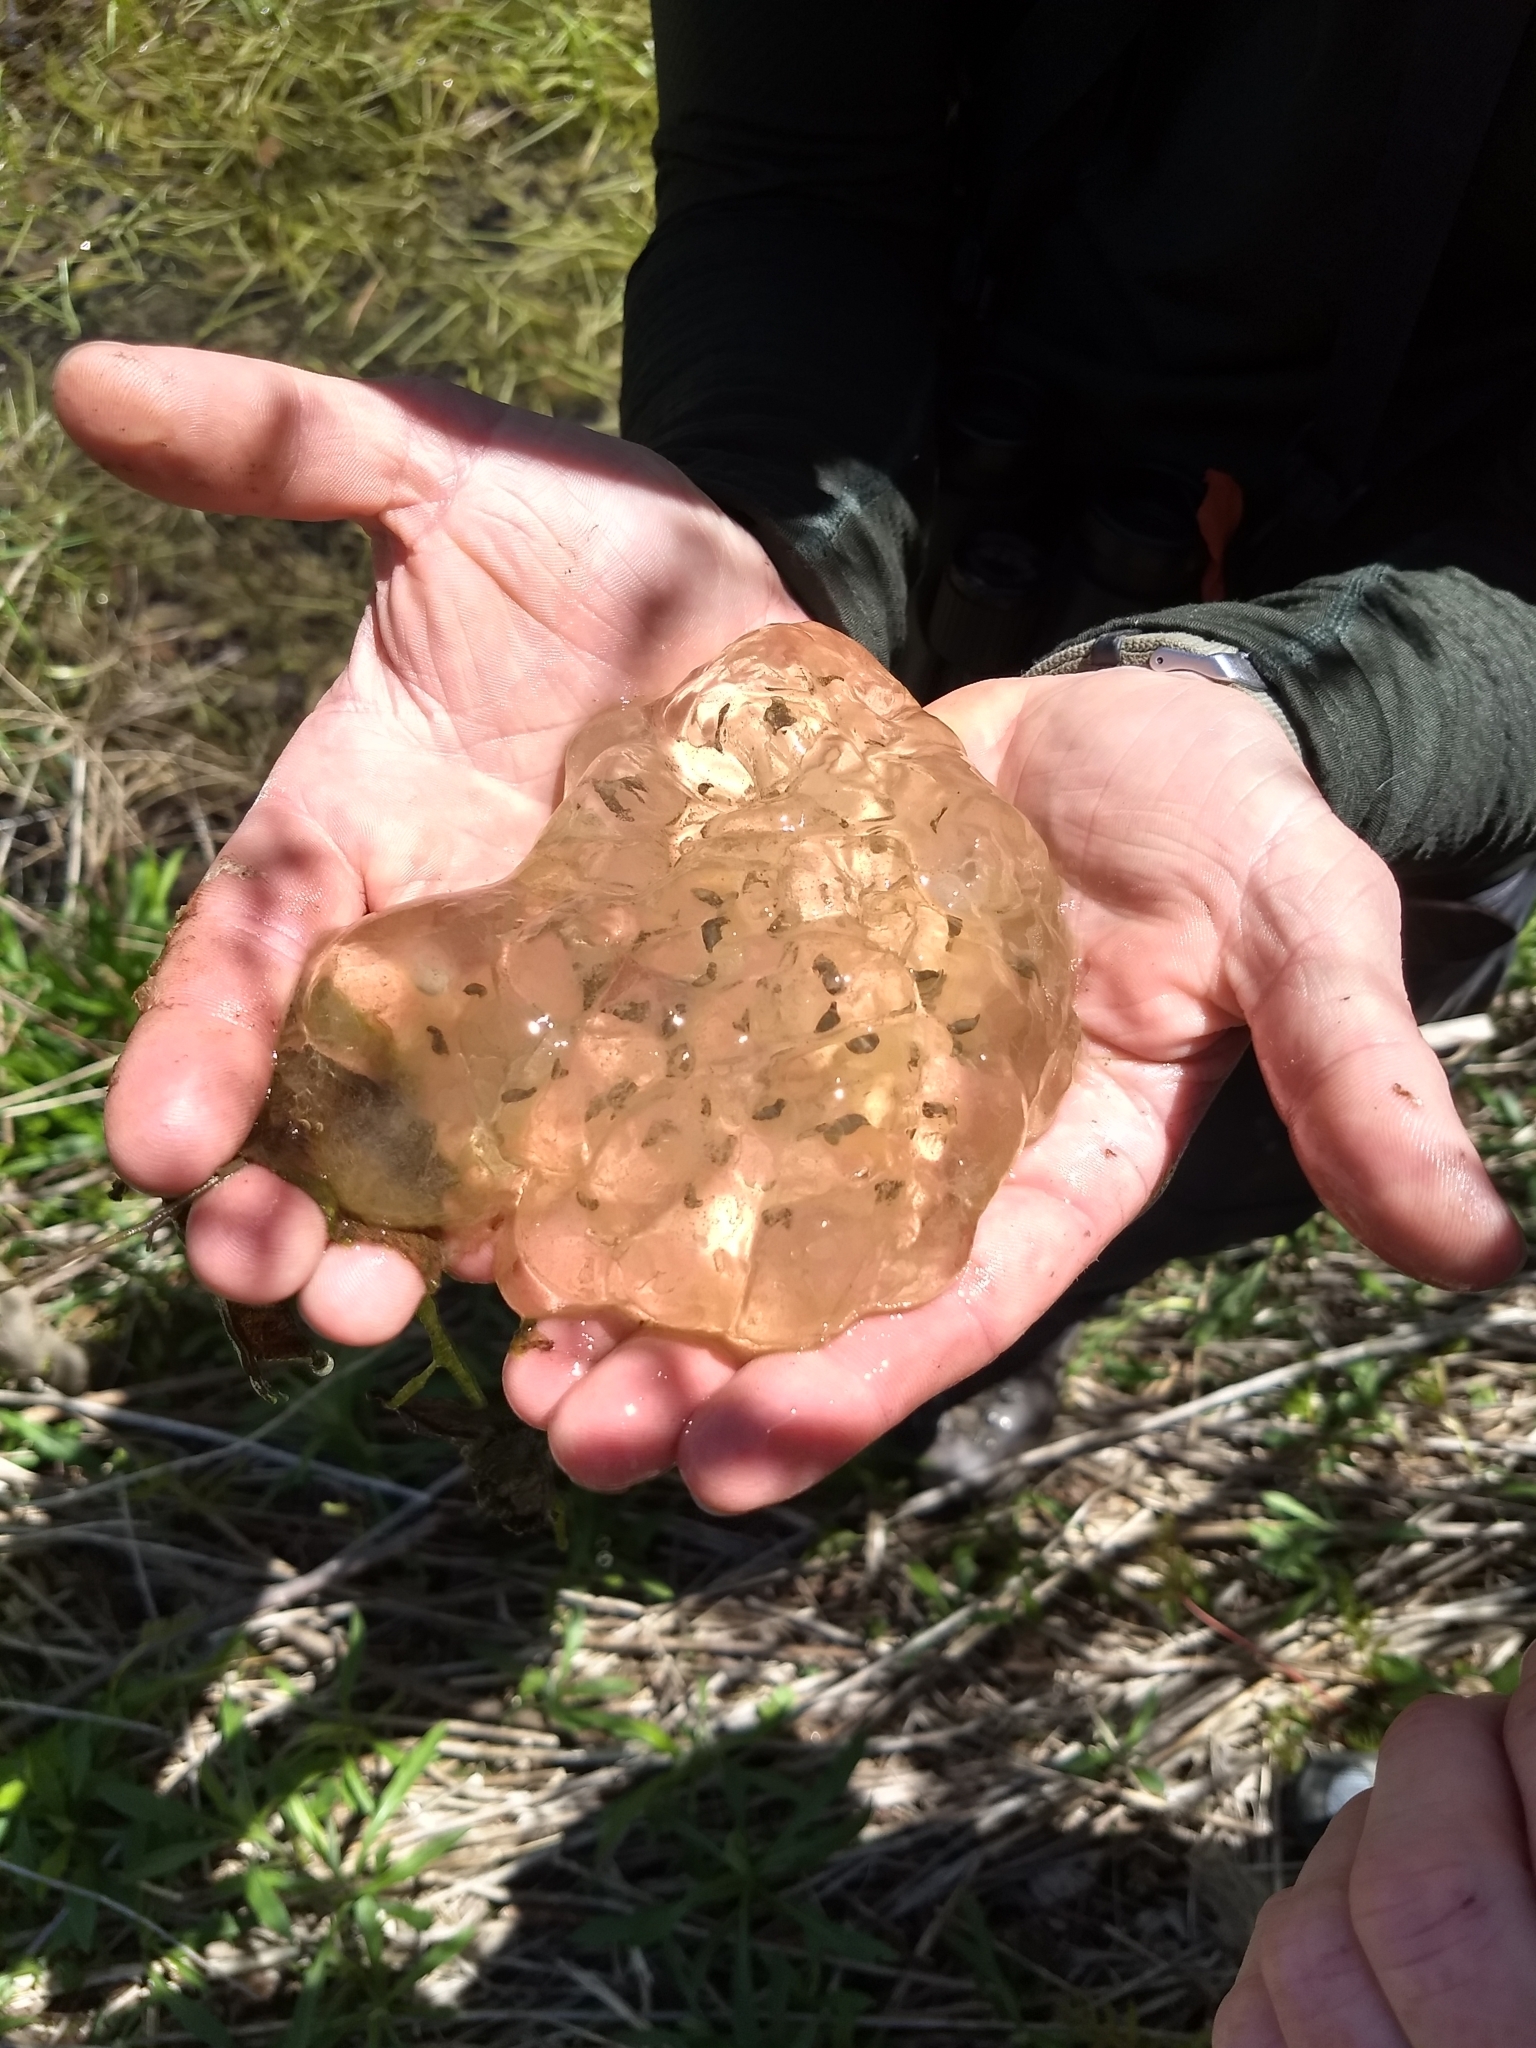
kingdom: Animalia
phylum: Chordata
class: Amphibia
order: Caudata
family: Ambystomatidae
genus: Ambystoma
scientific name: Ambystoma maculatum
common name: Spotted salamander
